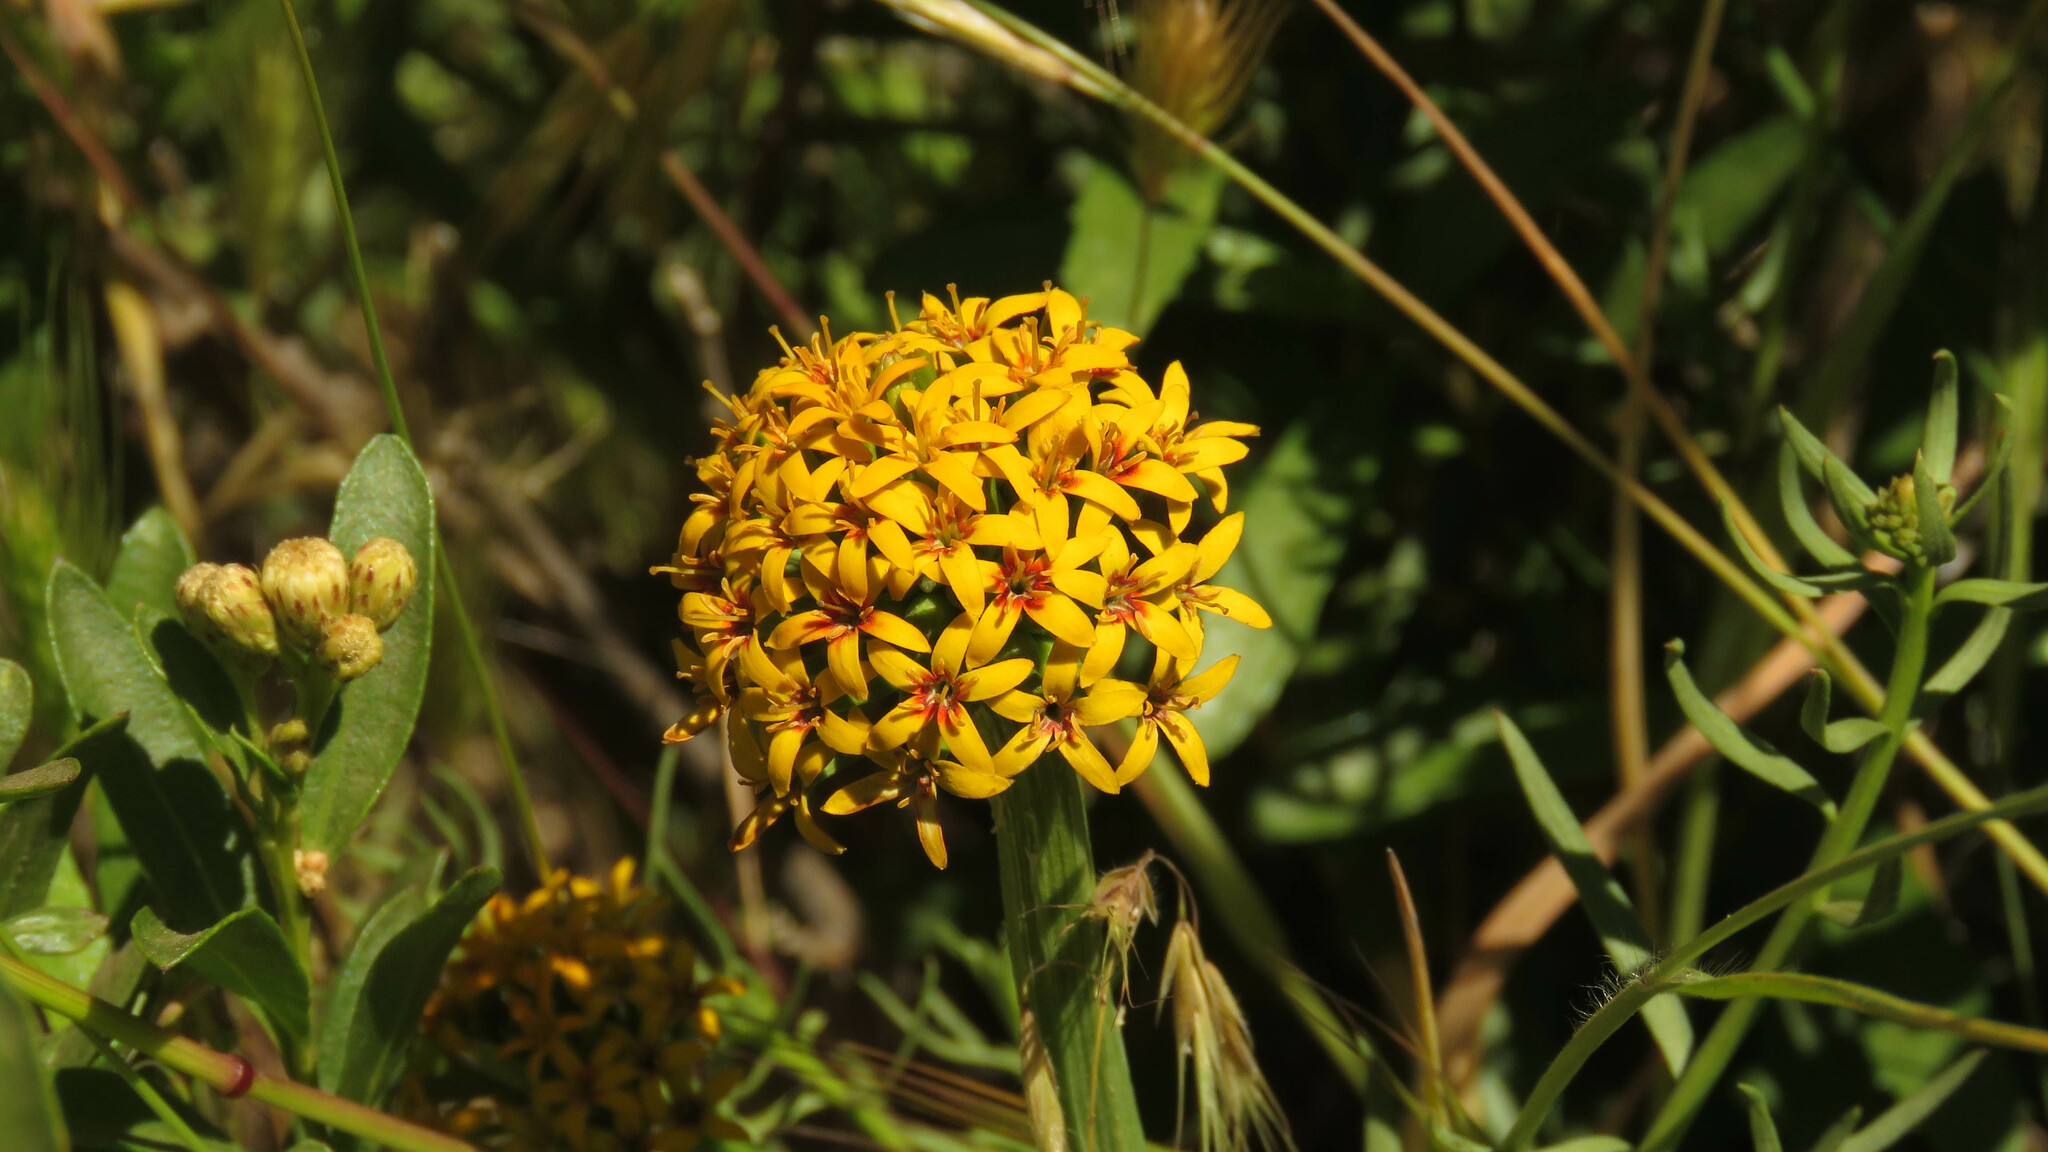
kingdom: Plantae
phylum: Tracheophyta
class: Magnoliopsida
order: Santalales
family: Schoepfiaceae
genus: Quinchamalium
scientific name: Quinchamalium chilense
